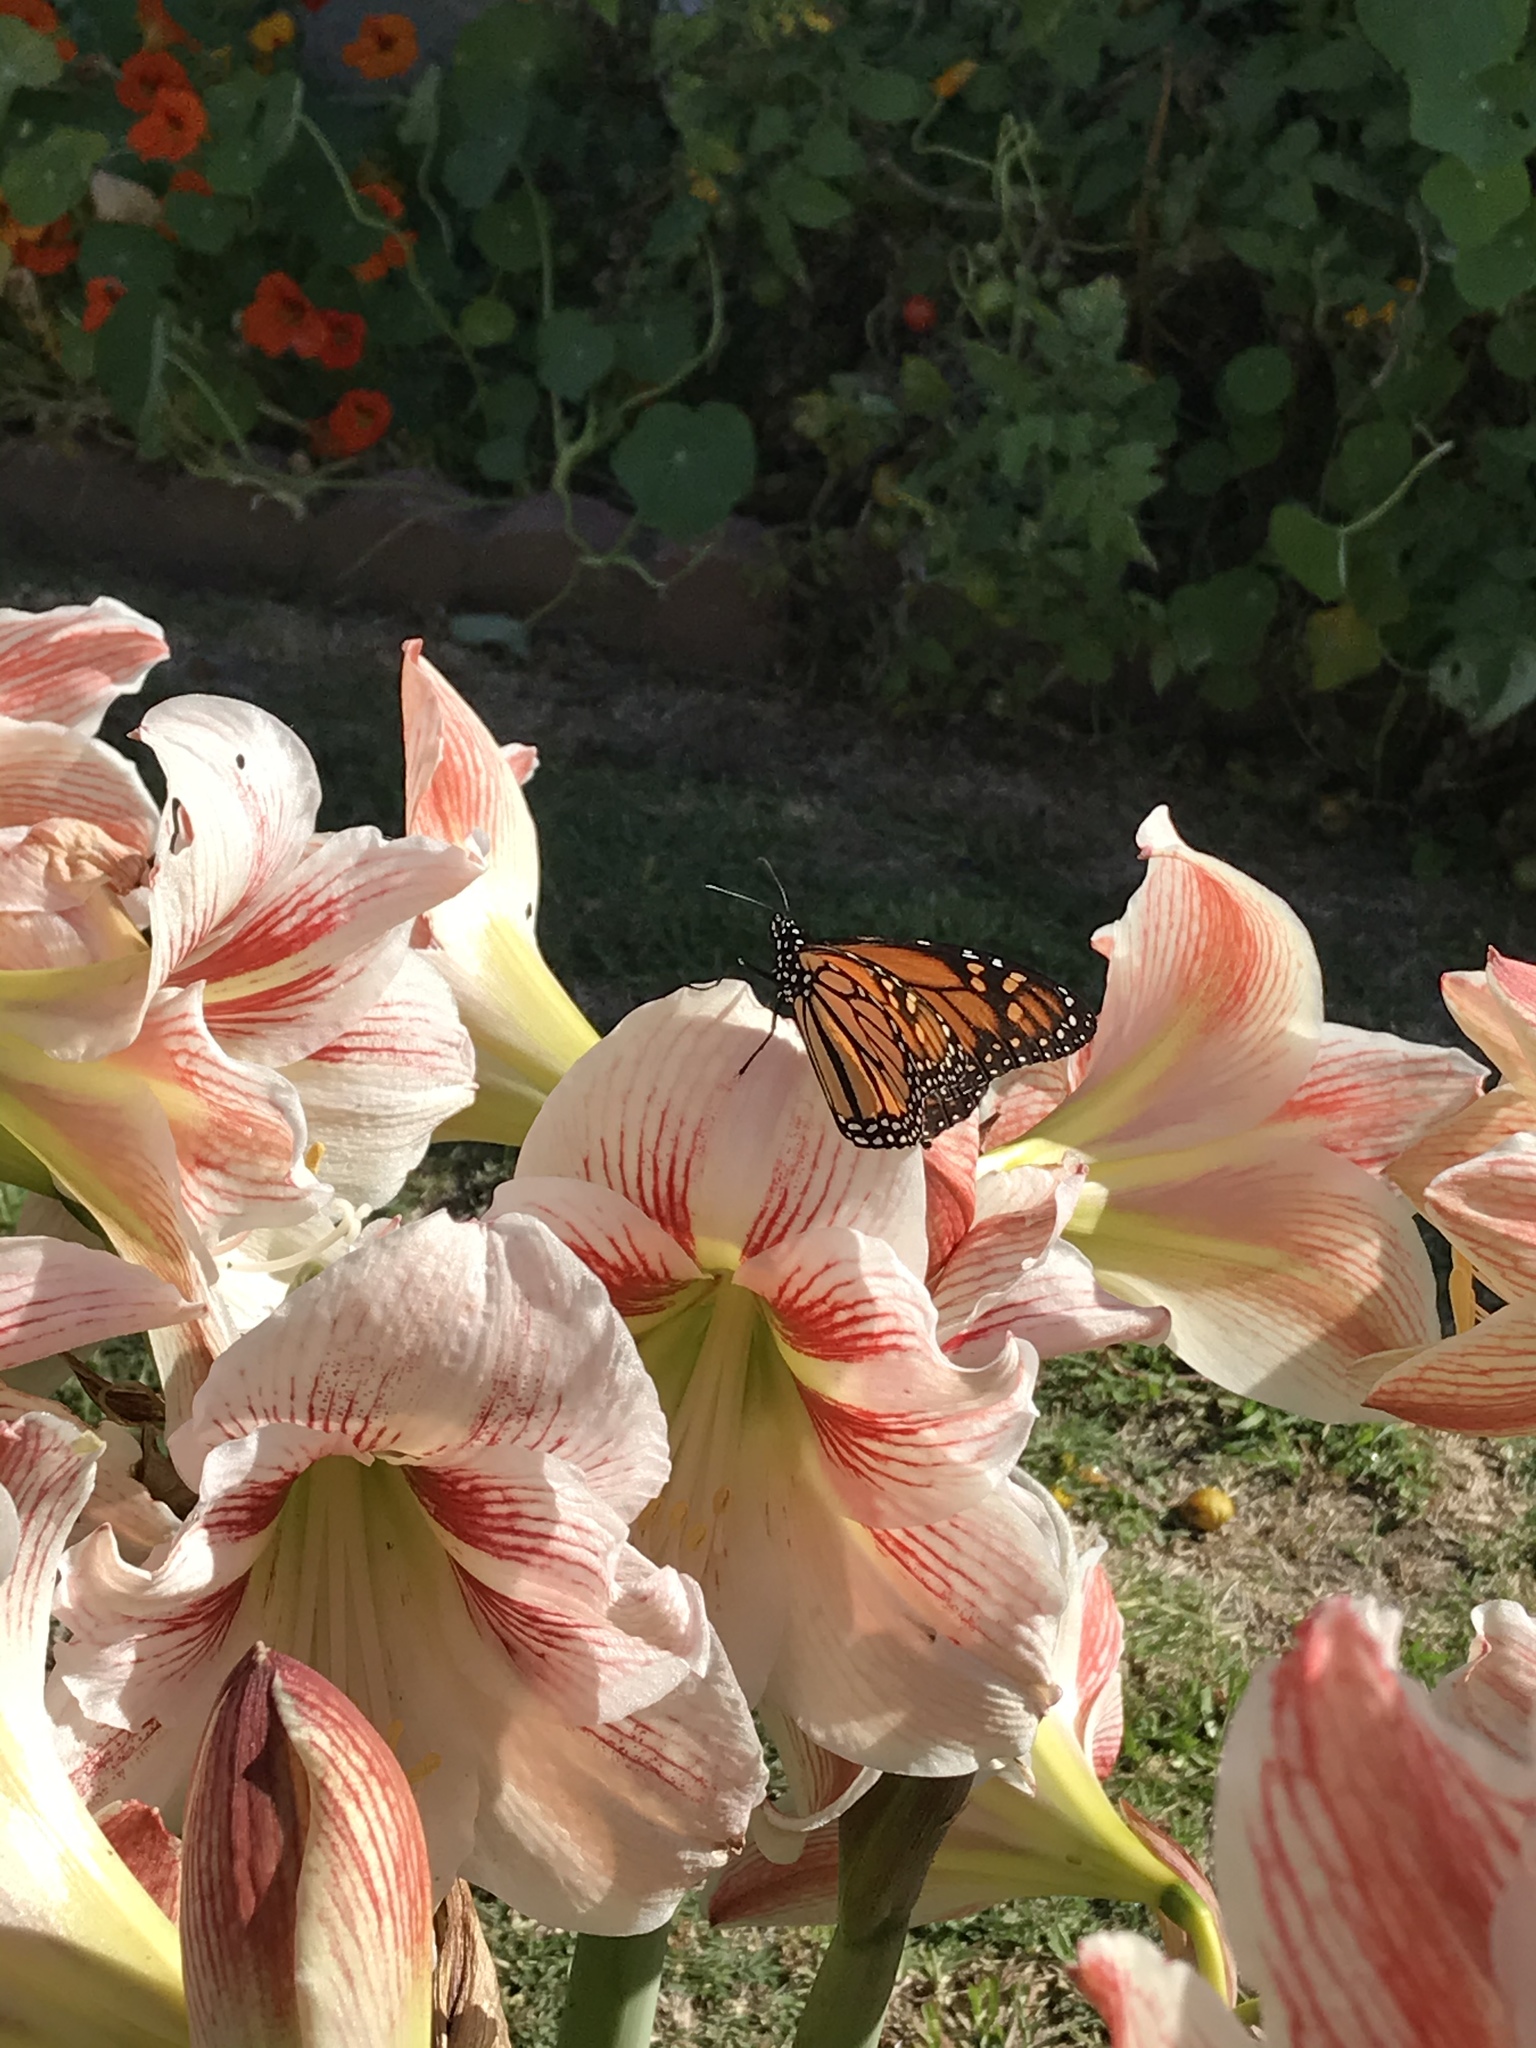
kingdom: Animalia
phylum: Arthropoda
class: Insecta
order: Lepidoptera
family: Nymphalidae
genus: Danaus
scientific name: Danaus plexippus
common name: Monarch
